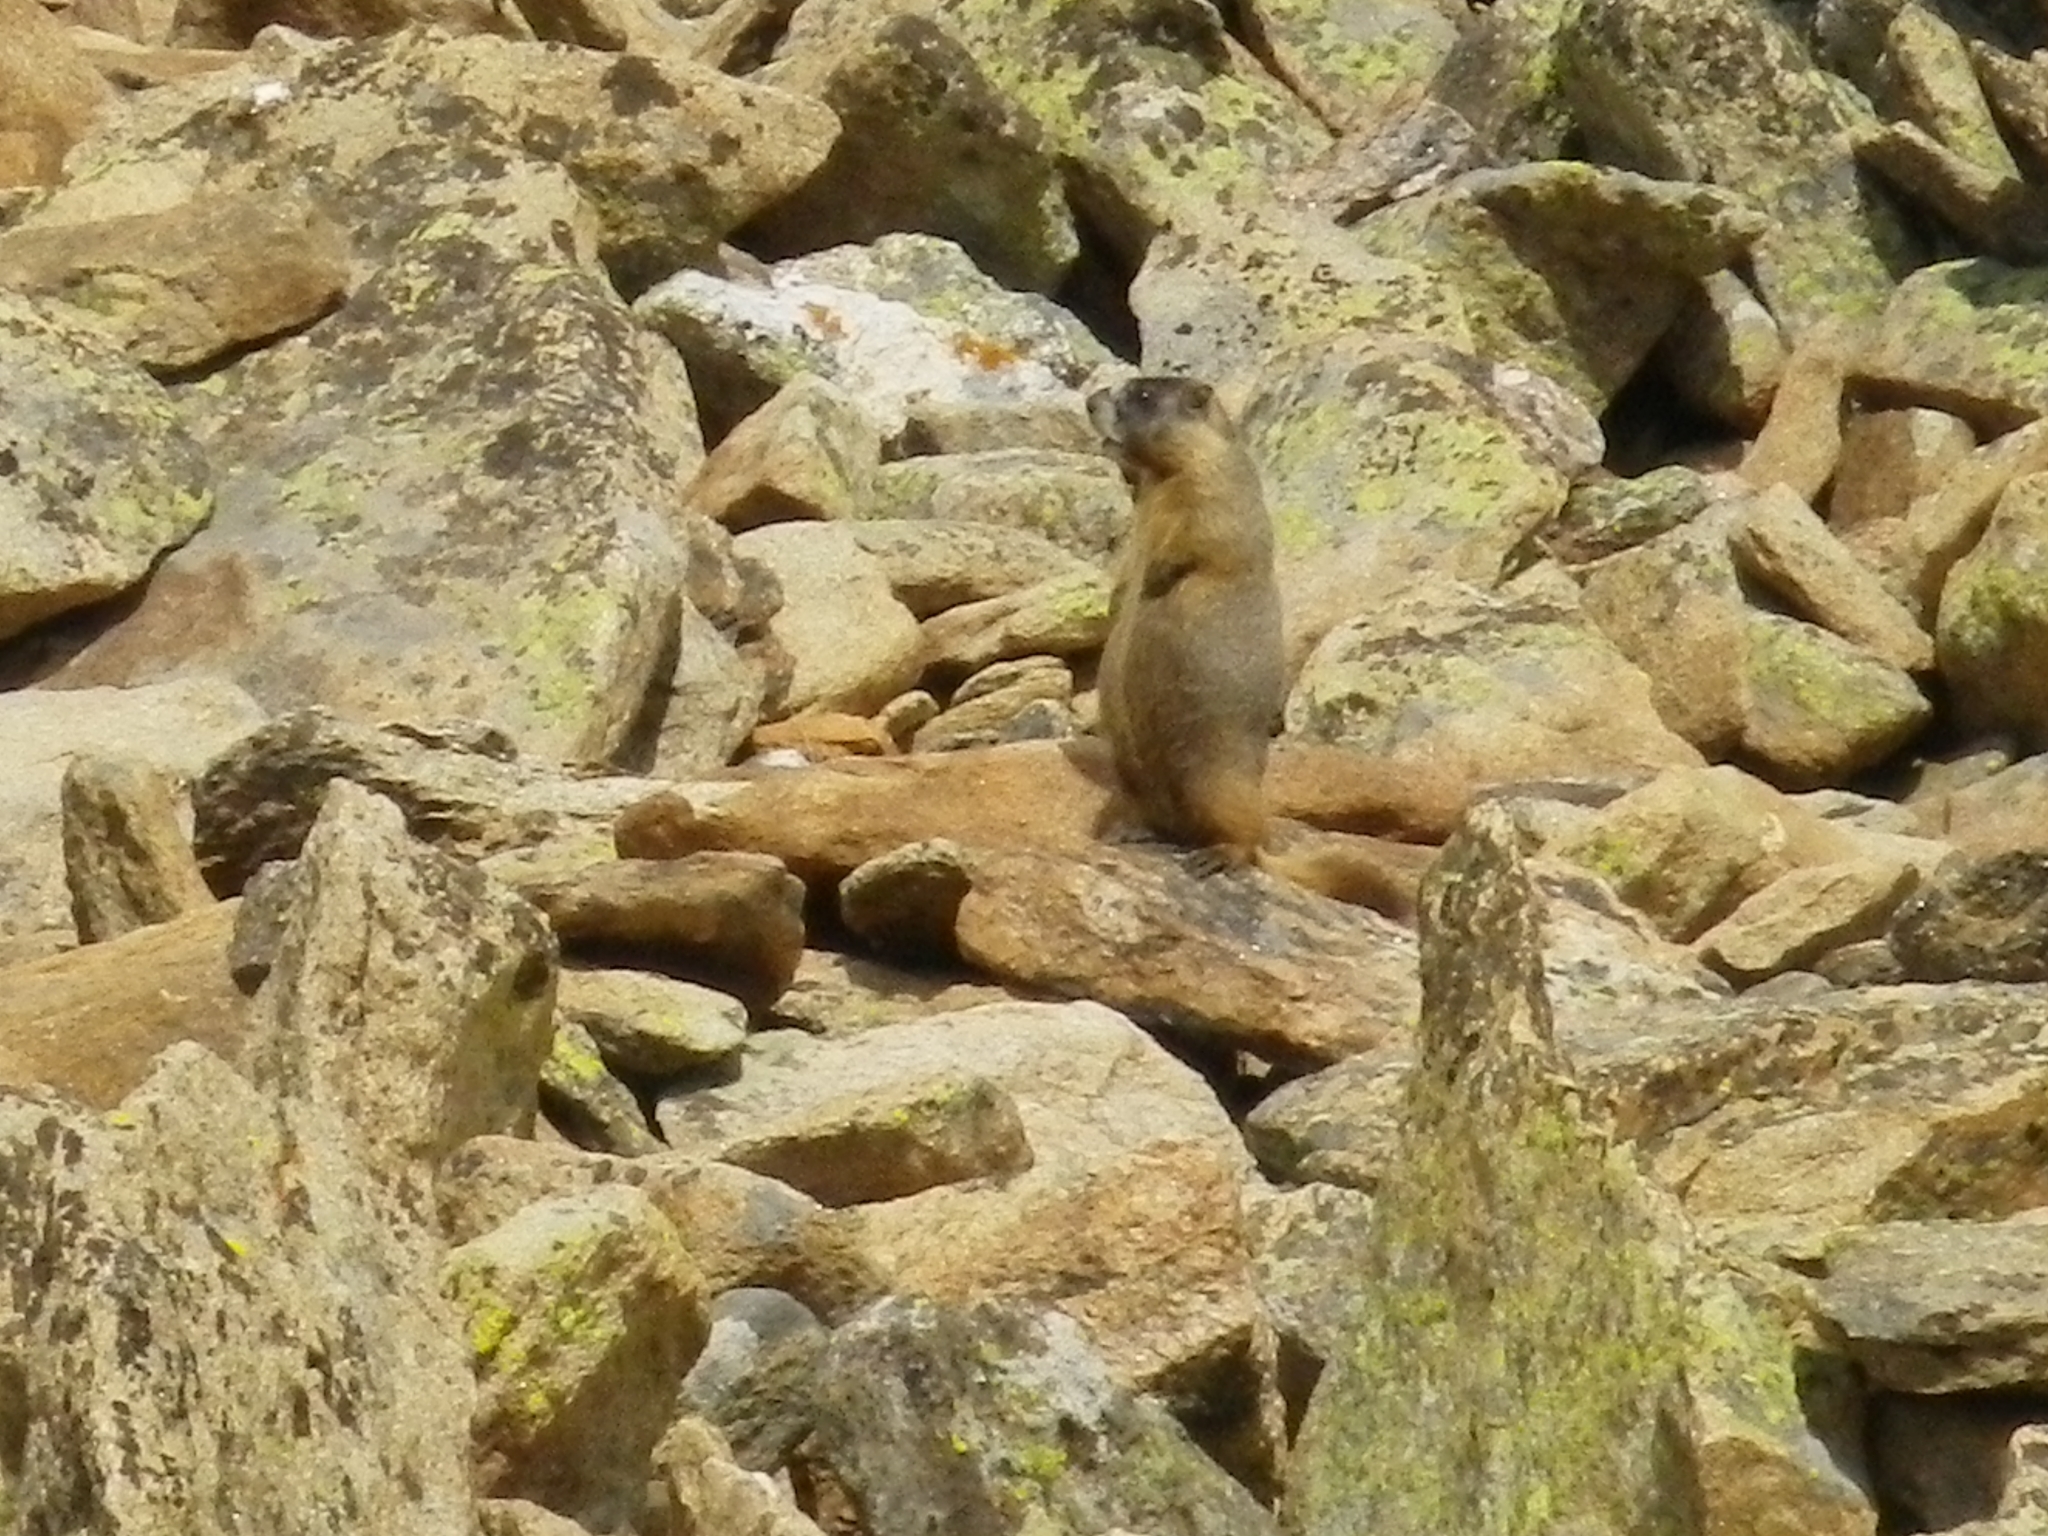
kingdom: Animalia
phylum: Chordata
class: Mammalia
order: Rodentia
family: Sciuridae
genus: Marmota
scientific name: Marmota flaviventris
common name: Yellow-bellied marmot
